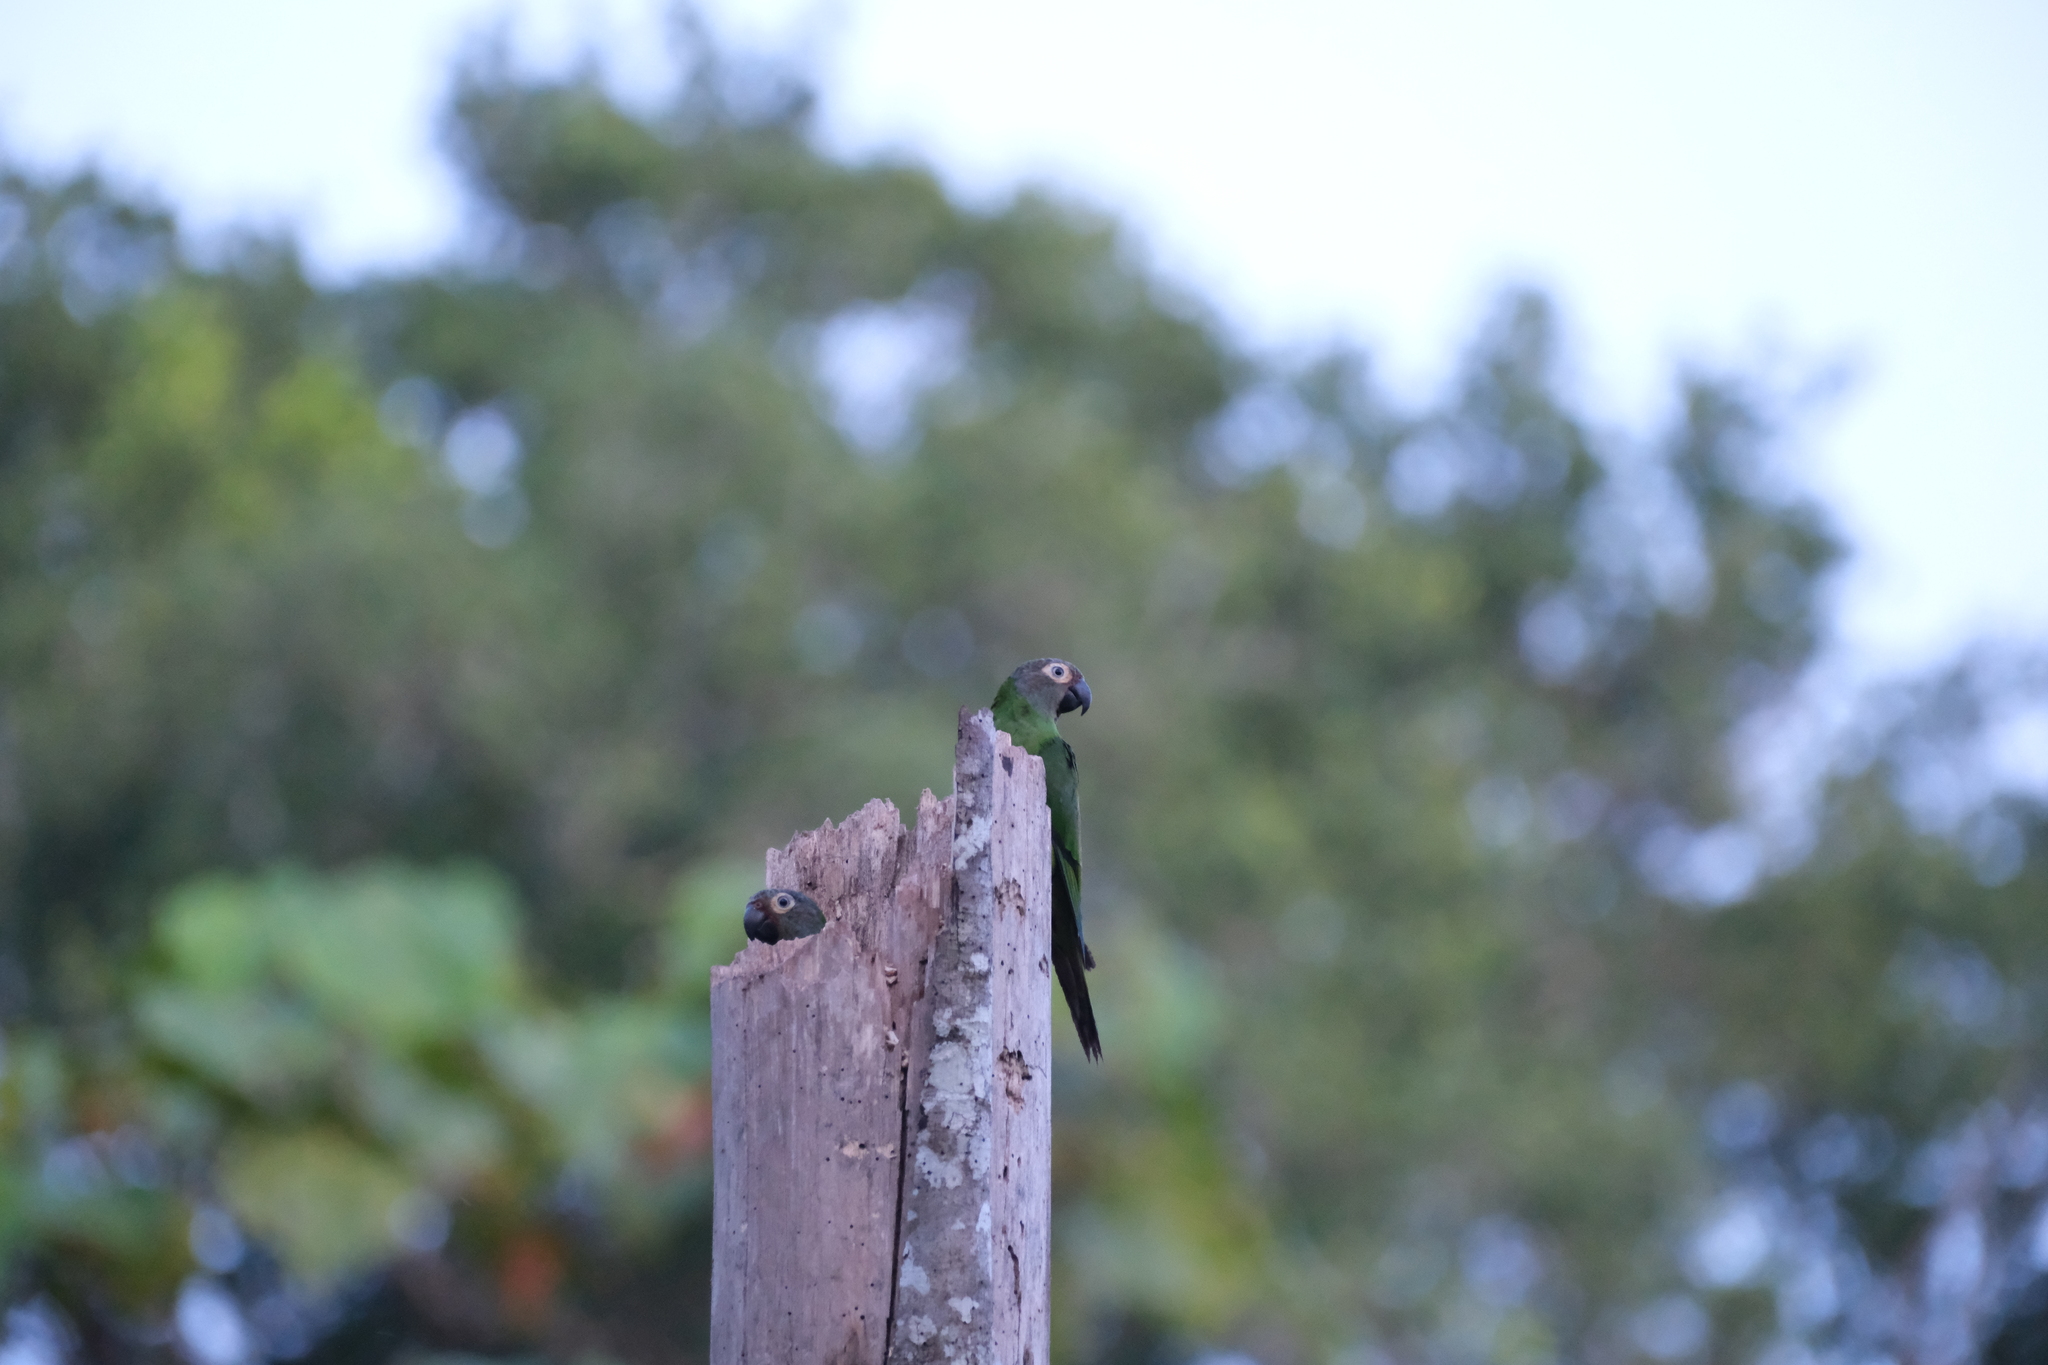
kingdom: Animalia
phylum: Chordata
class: Aves
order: Psittaciformes
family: Psittacidae
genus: Aratinga
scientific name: Aratinga weddellii
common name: Dusky-headed parakeet
